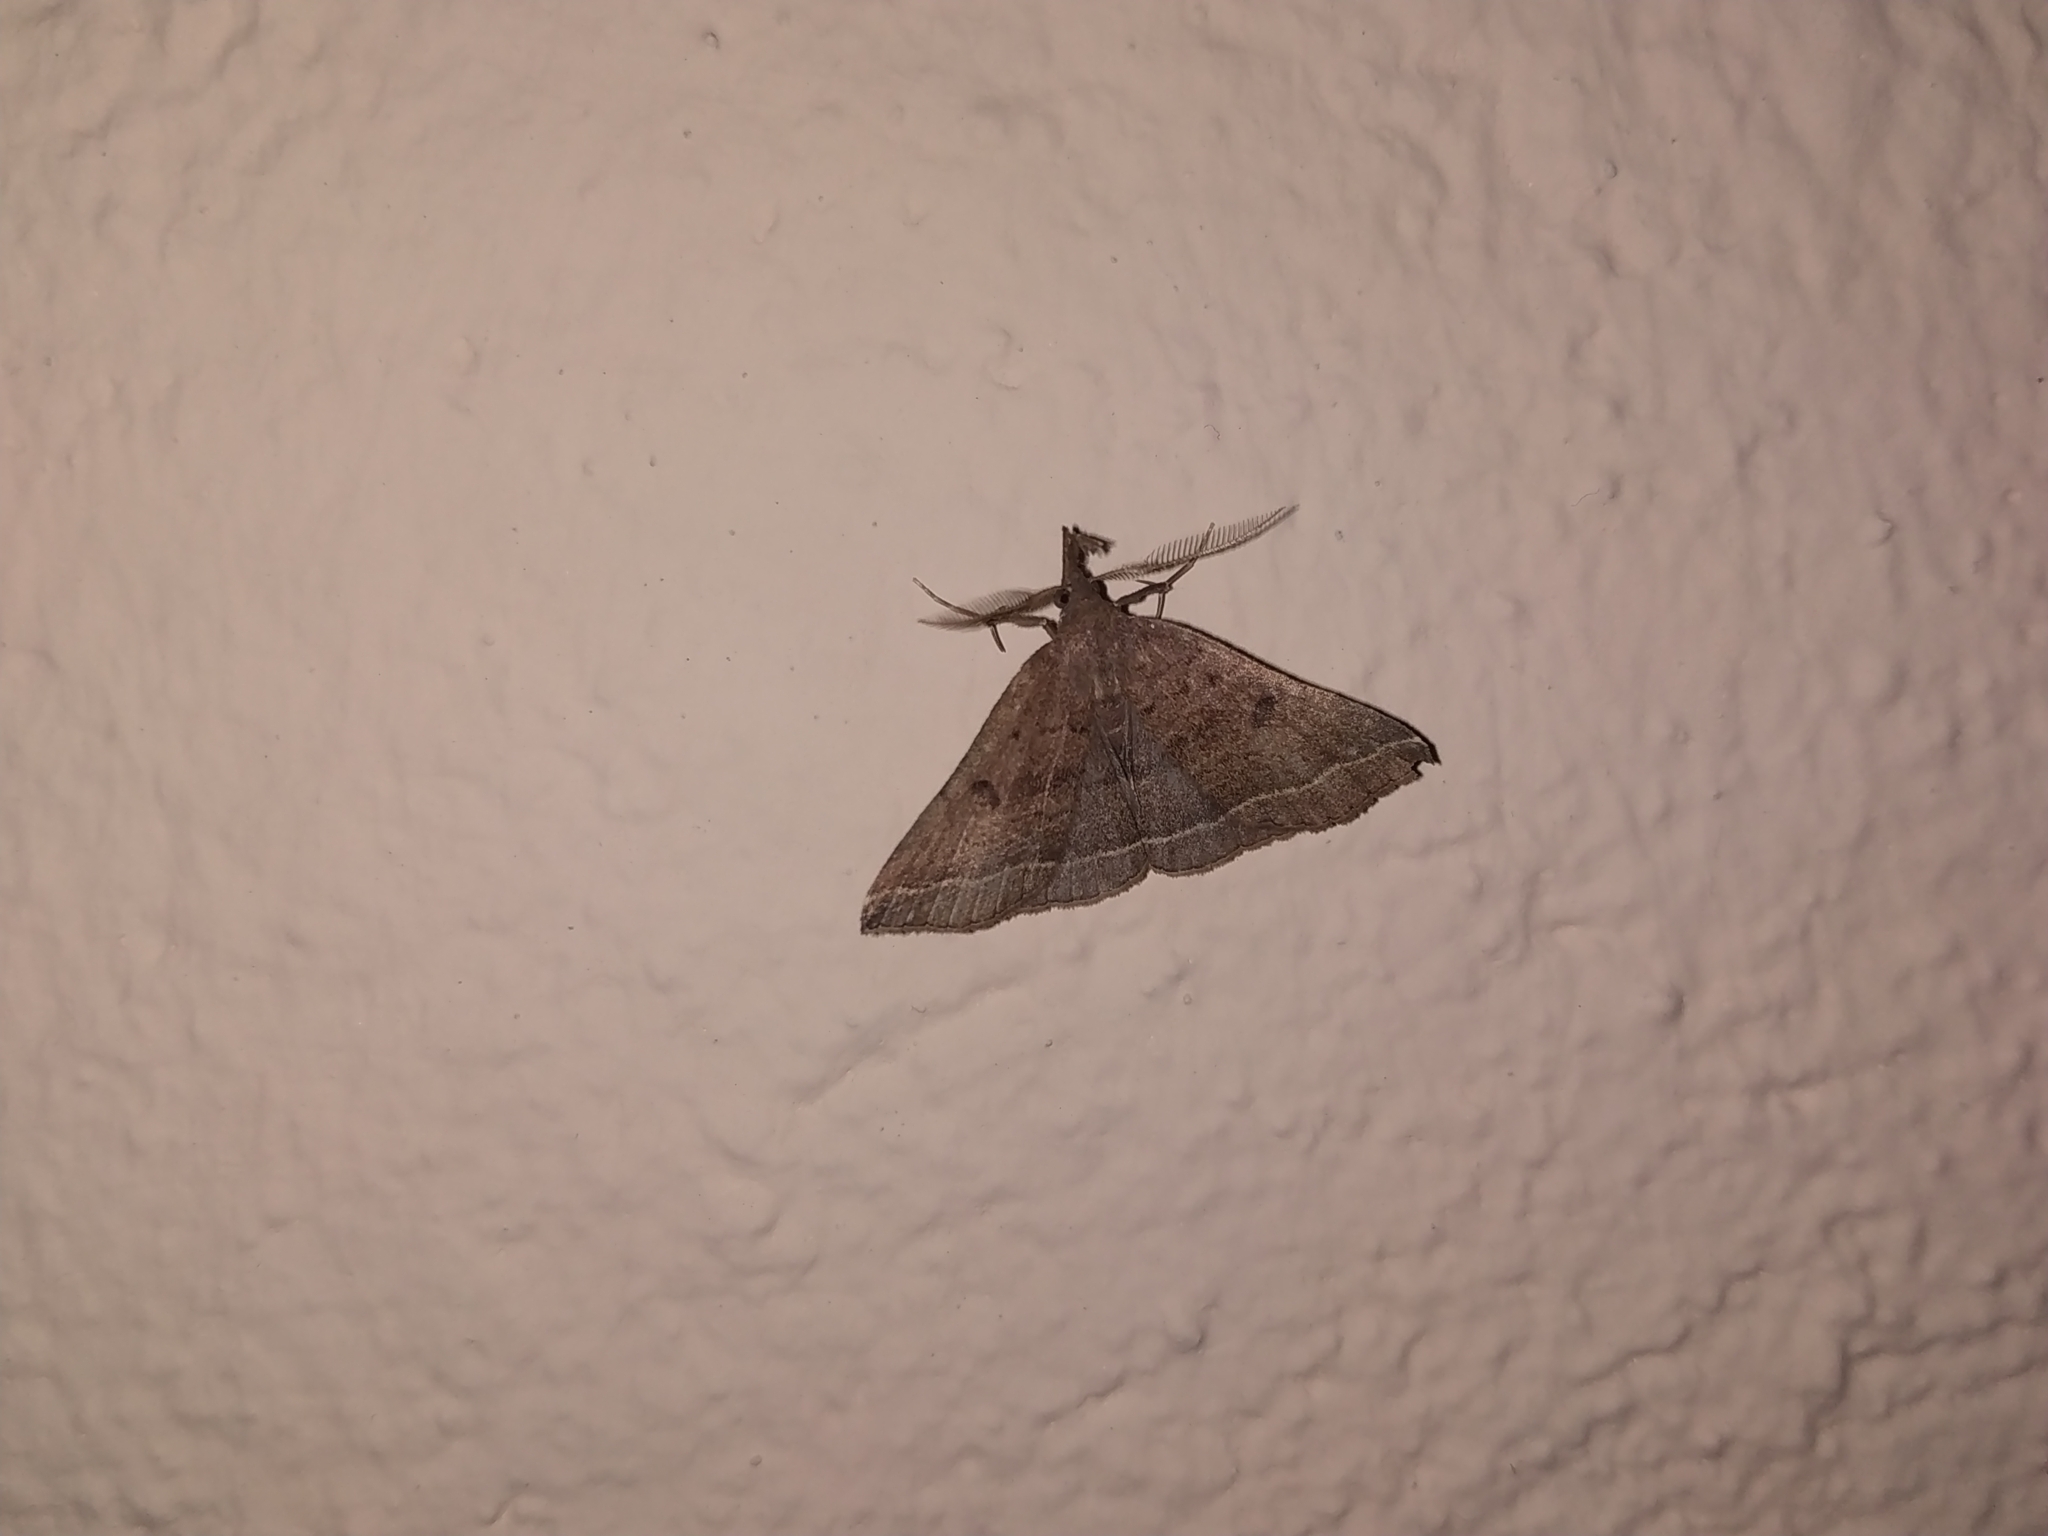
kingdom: Animalia
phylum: Arthropoda
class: Insecta
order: Lepidoptera
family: Erebidae
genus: Pechipogo
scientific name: Pechipogo plumigeralis
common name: Plumed fan-foot
